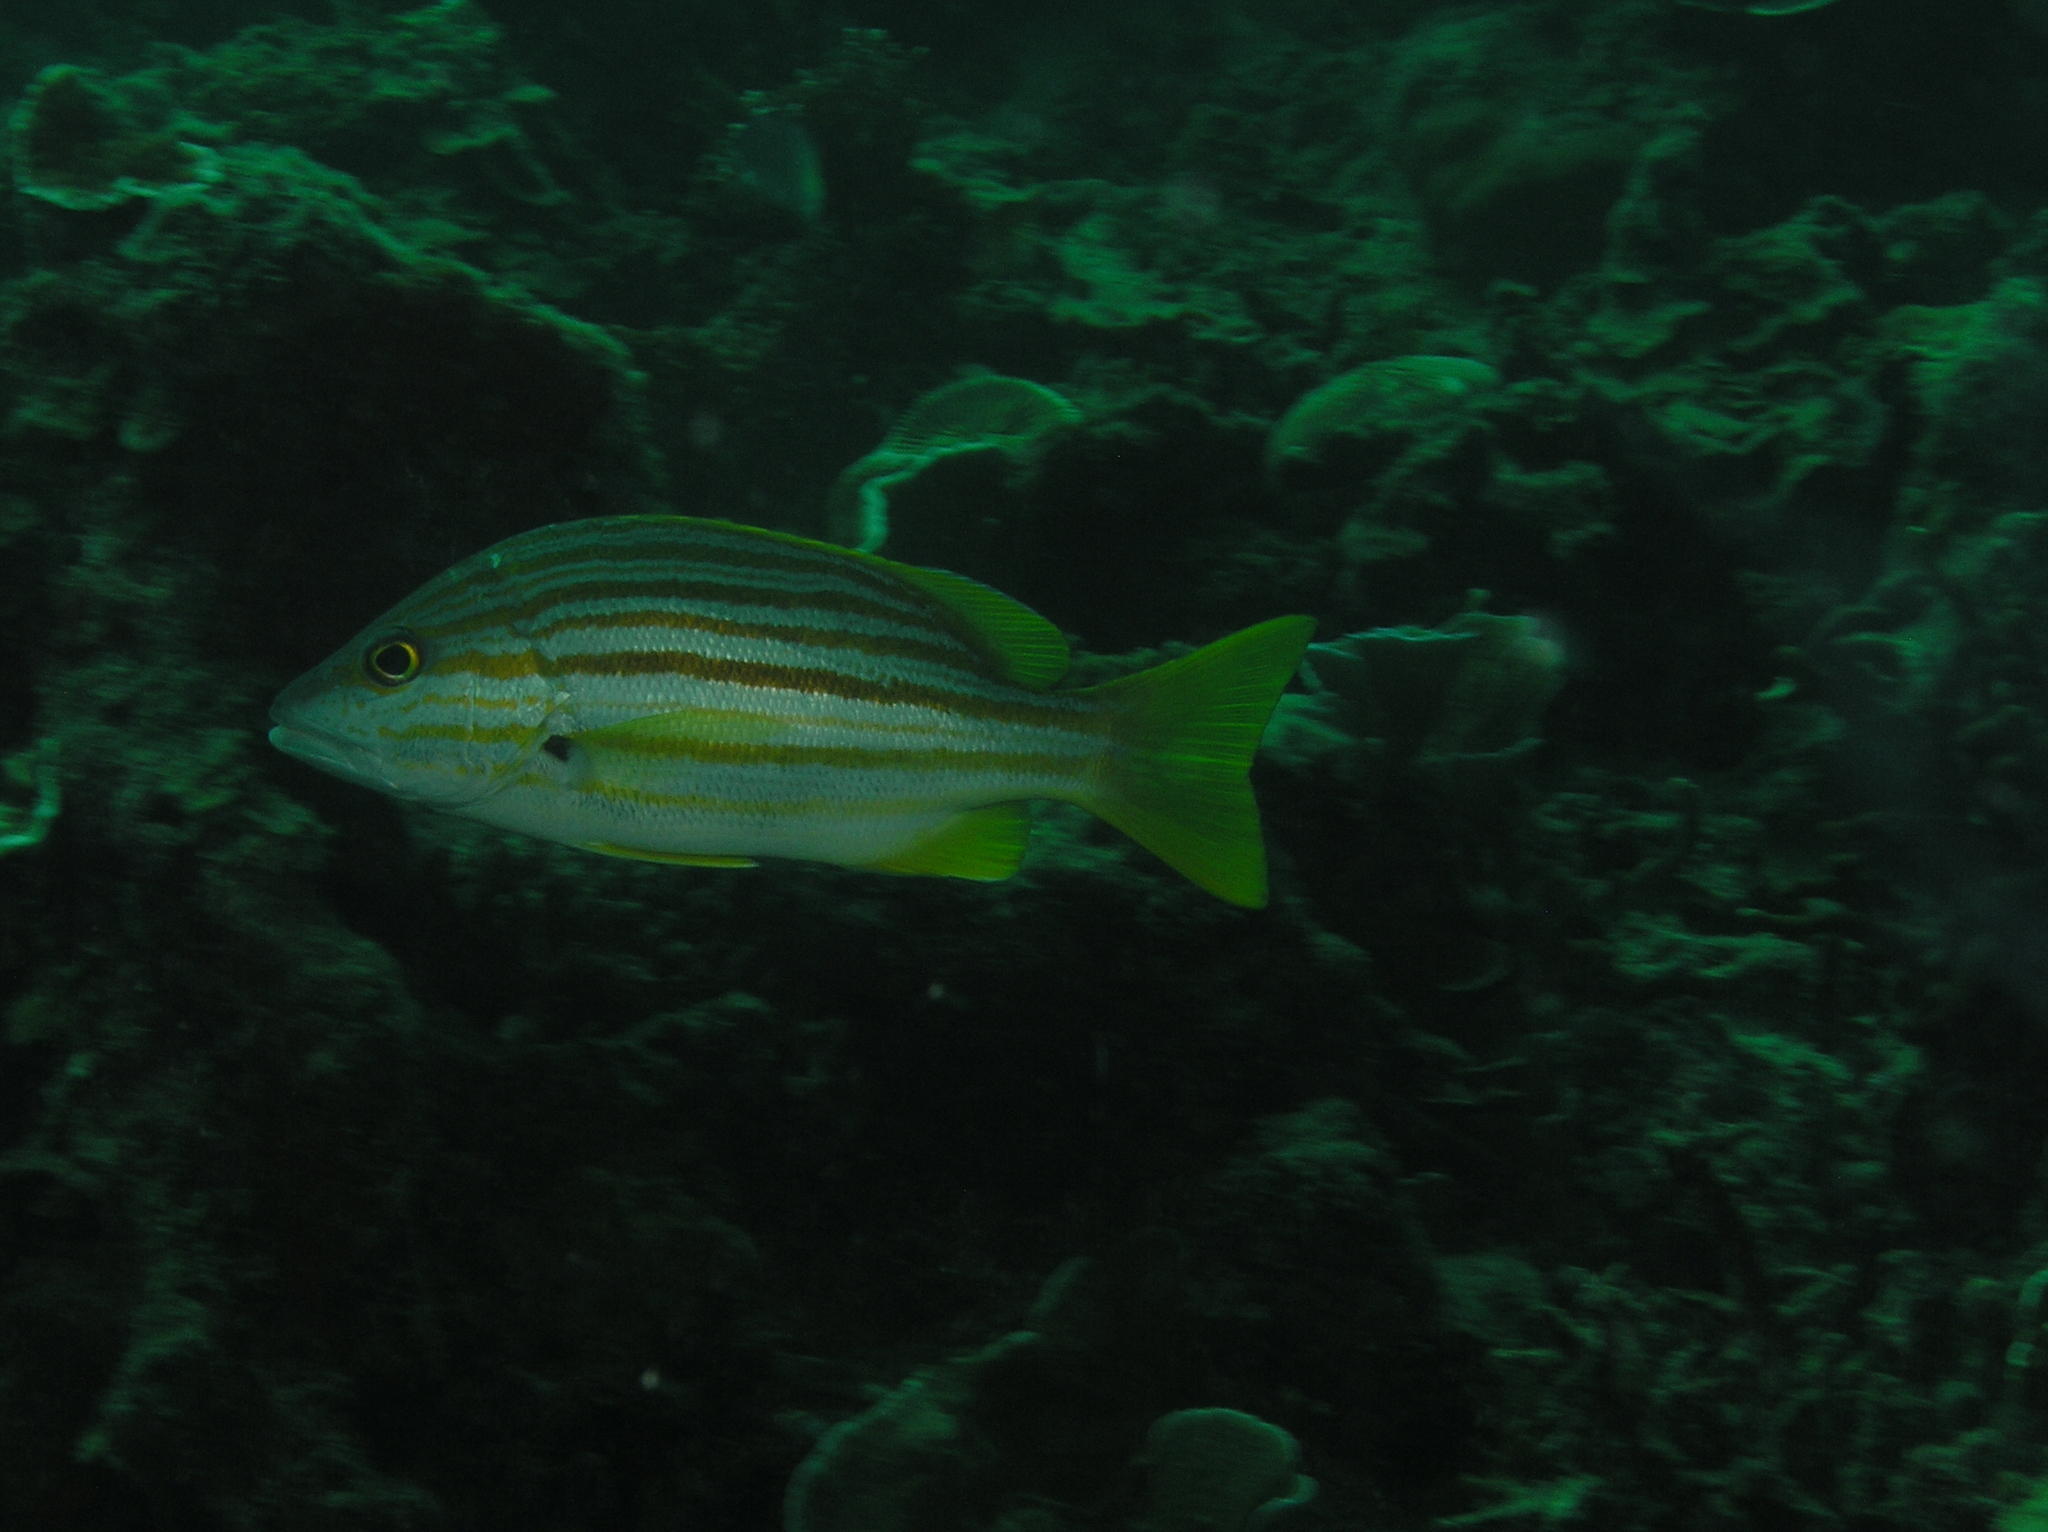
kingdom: Animalia
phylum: Chordata
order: Perciformes
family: Lutjanidae
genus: Lutjanus
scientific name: Lutjanus carponotatus
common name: Spanish flag
